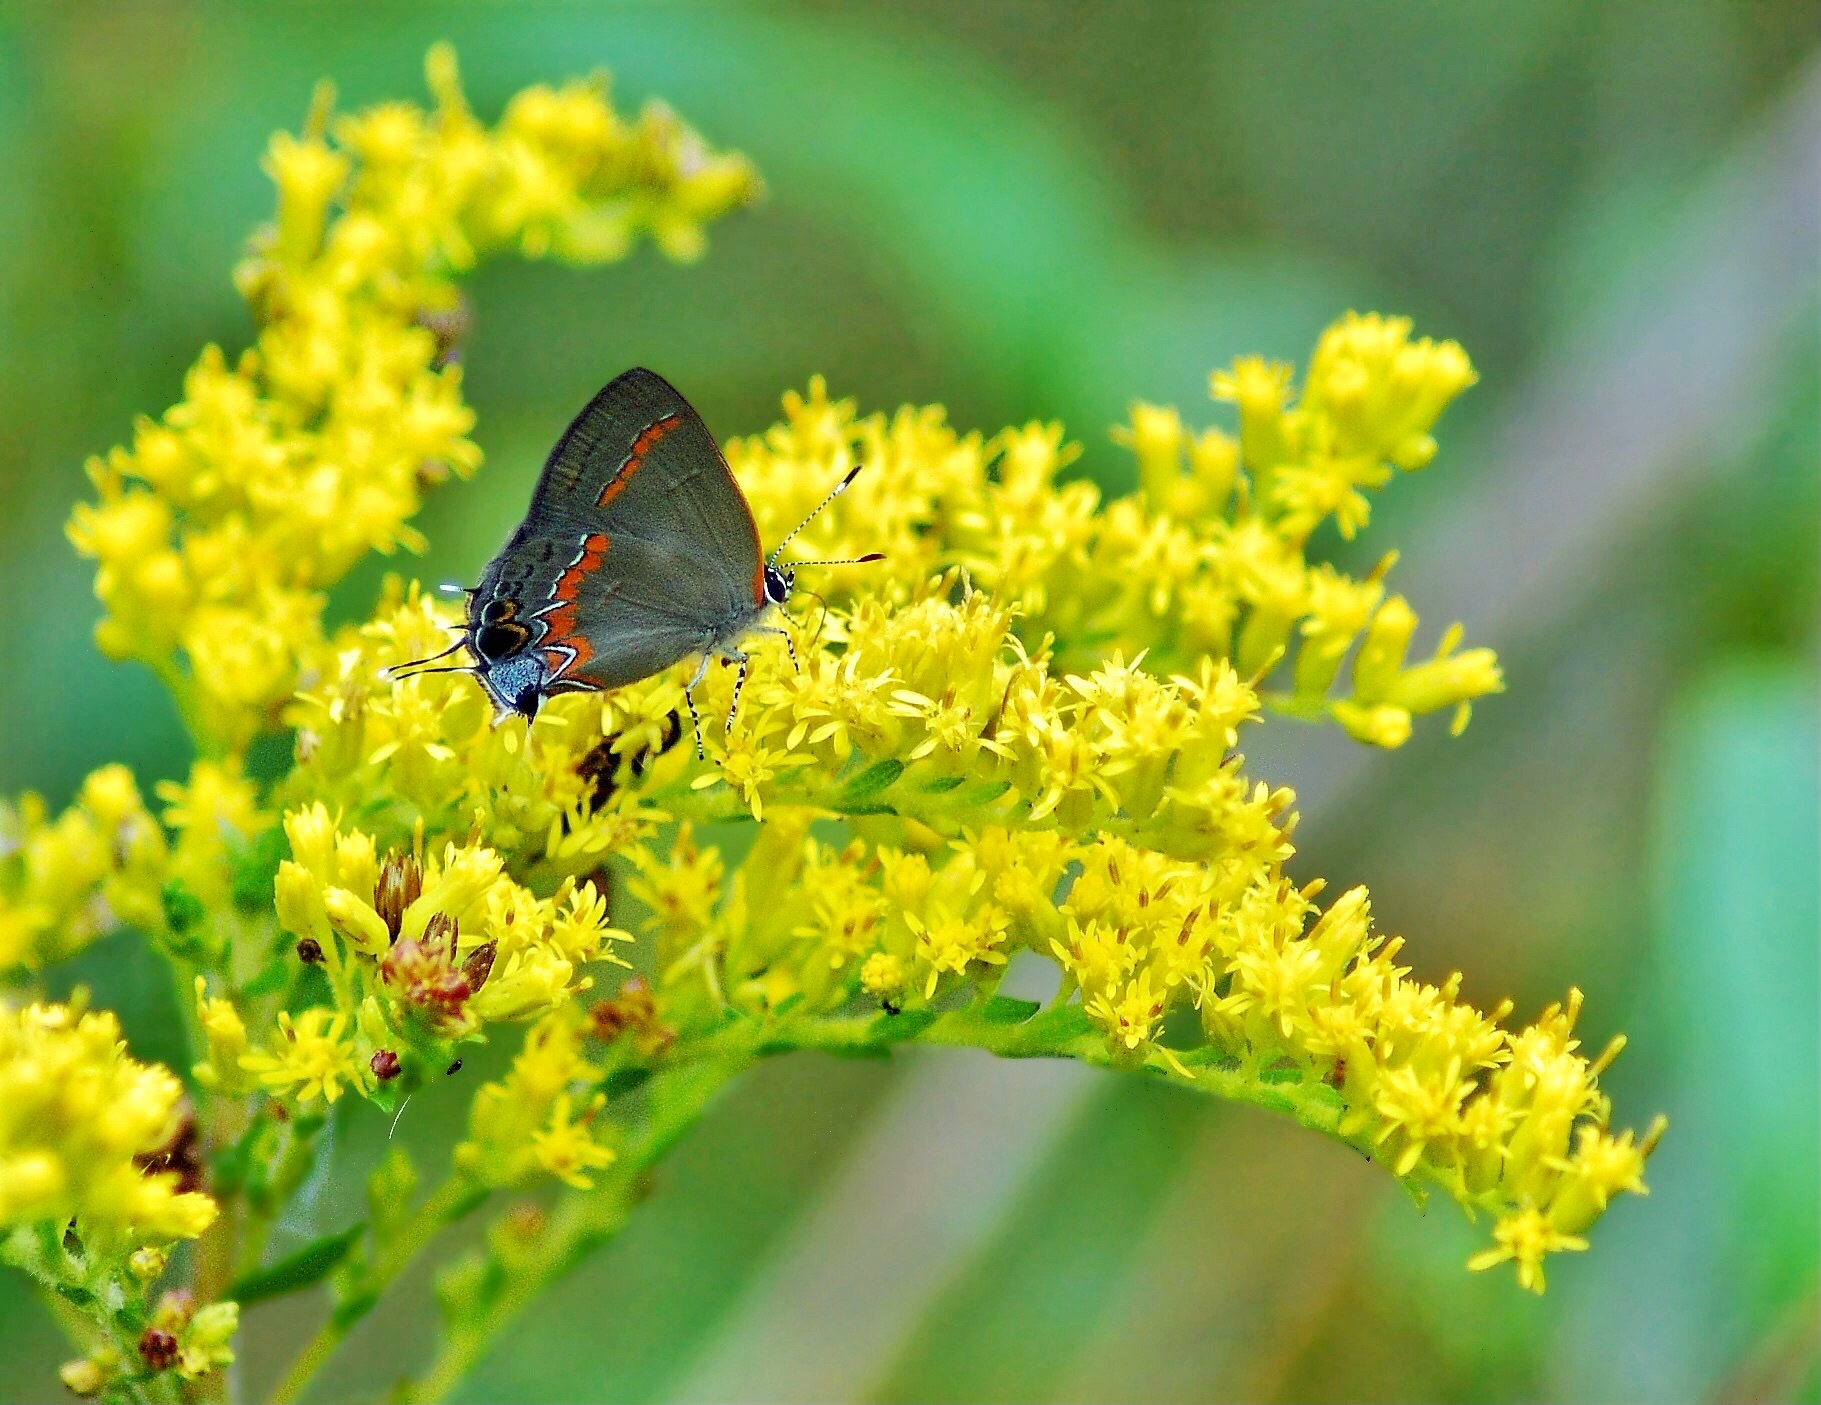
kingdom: Animalia
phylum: Arthropoda
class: Insecta
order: Lepidoptera
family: Lycaenidae
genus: Calycopis
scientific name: Calycopis cecrops
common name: Red-banded hairstreak
